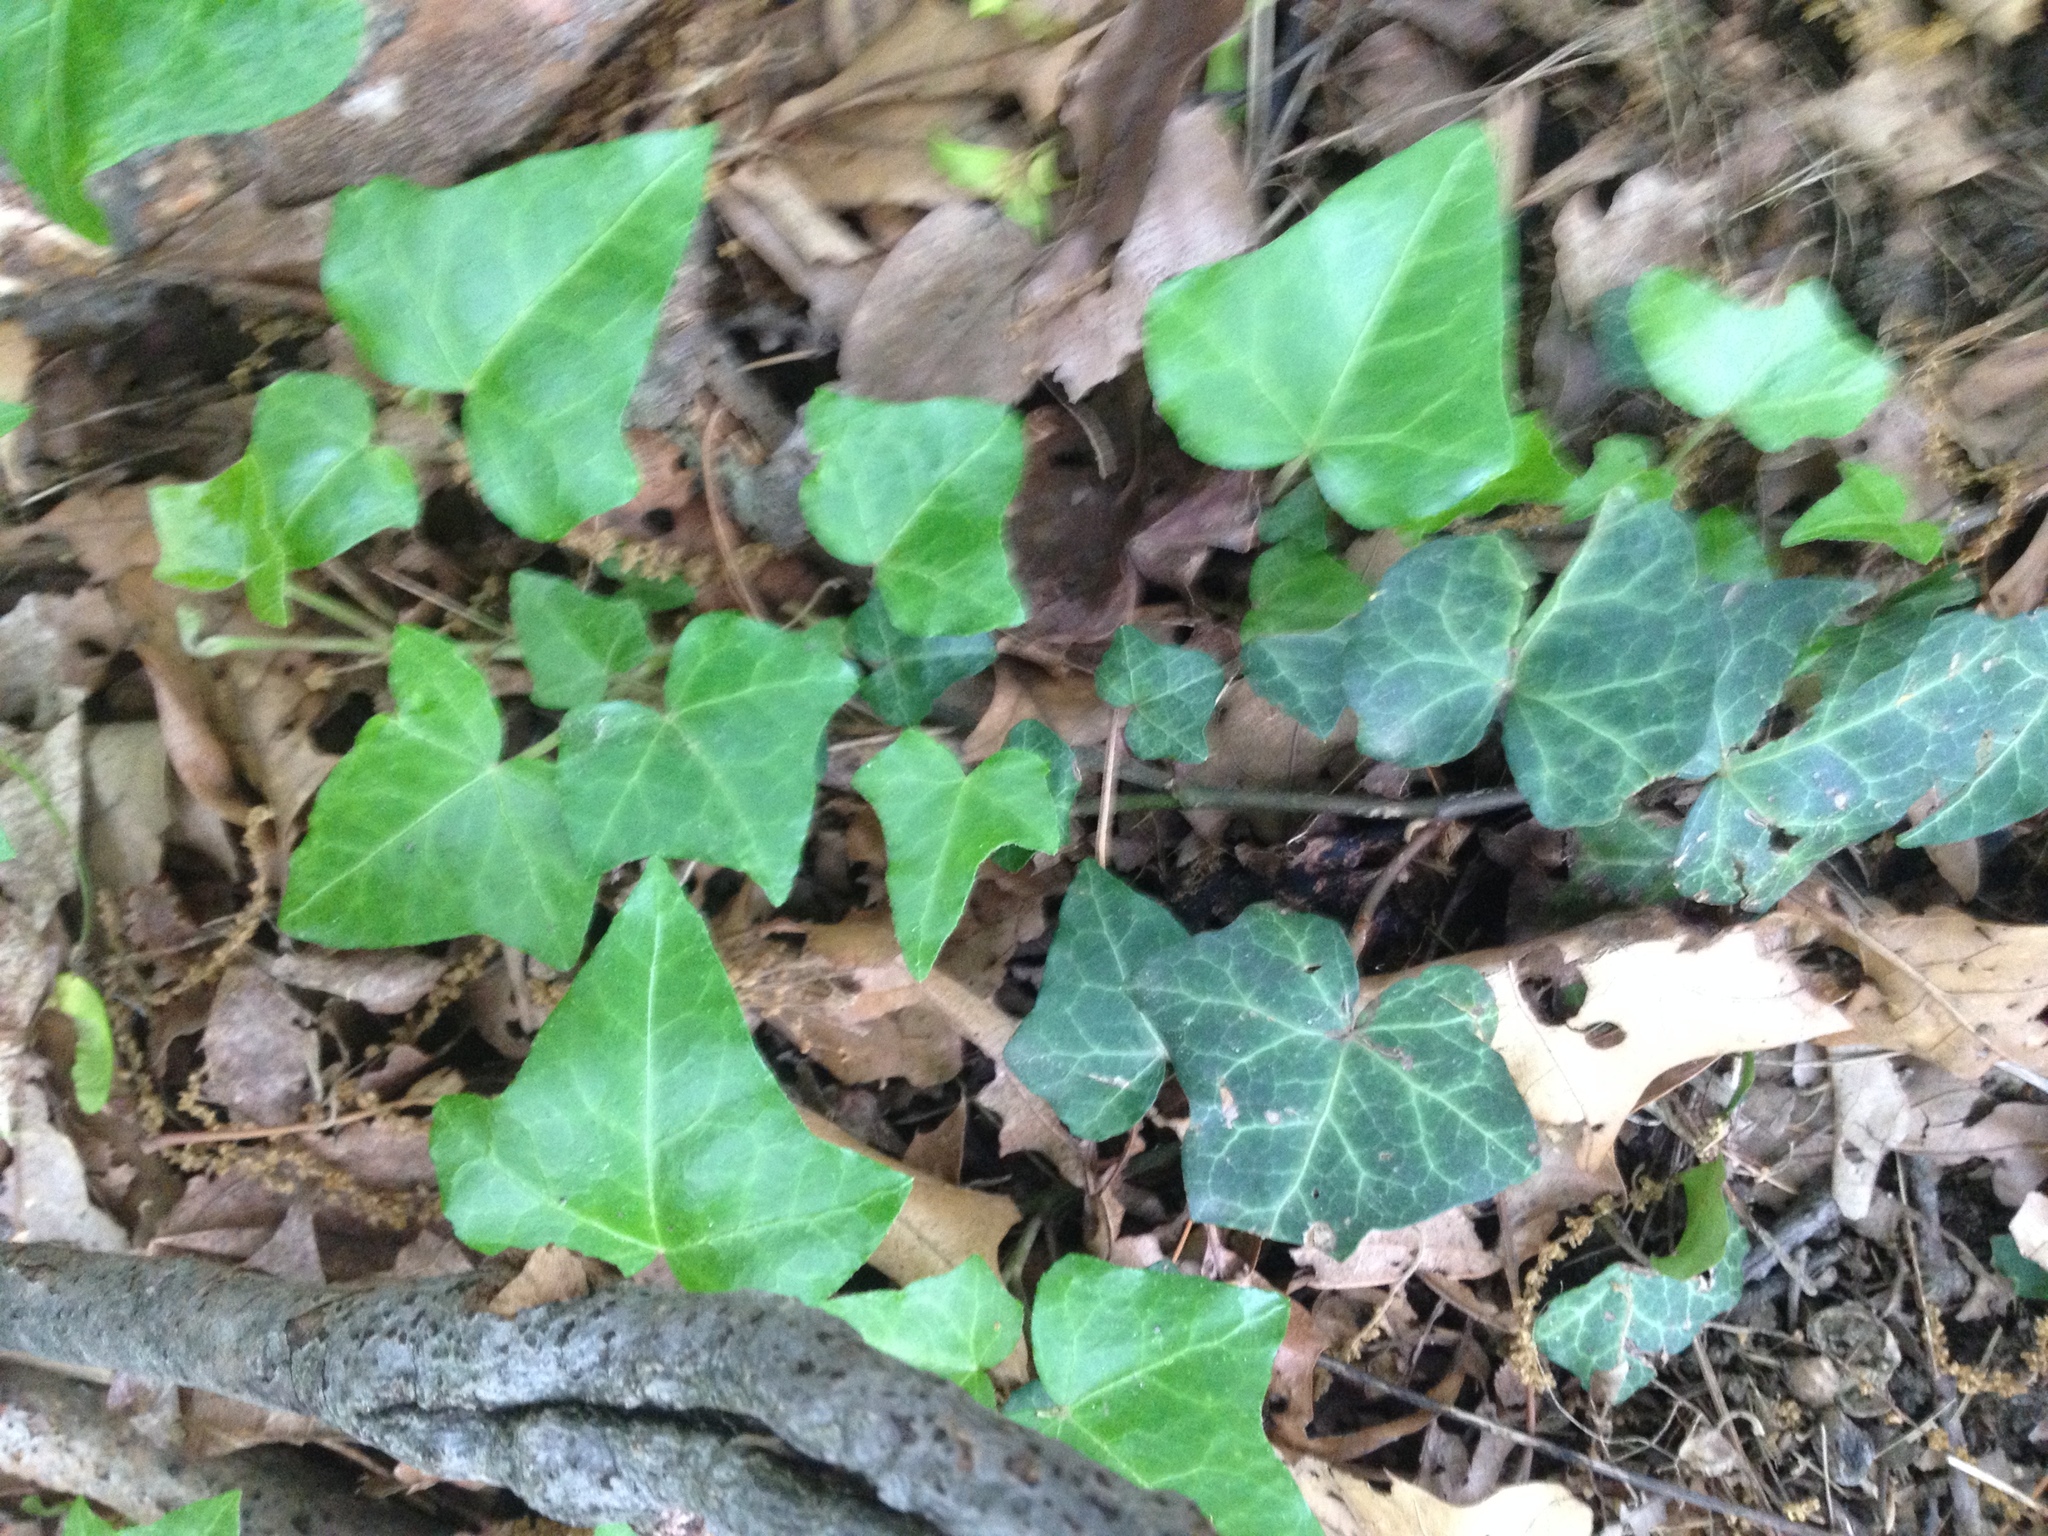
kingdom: Plantae
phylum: Tracheophyta
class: Magnoliopsida
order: Apiales
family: Araliaceae
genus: Hedera
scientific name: Hedera helix
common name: Ivy
